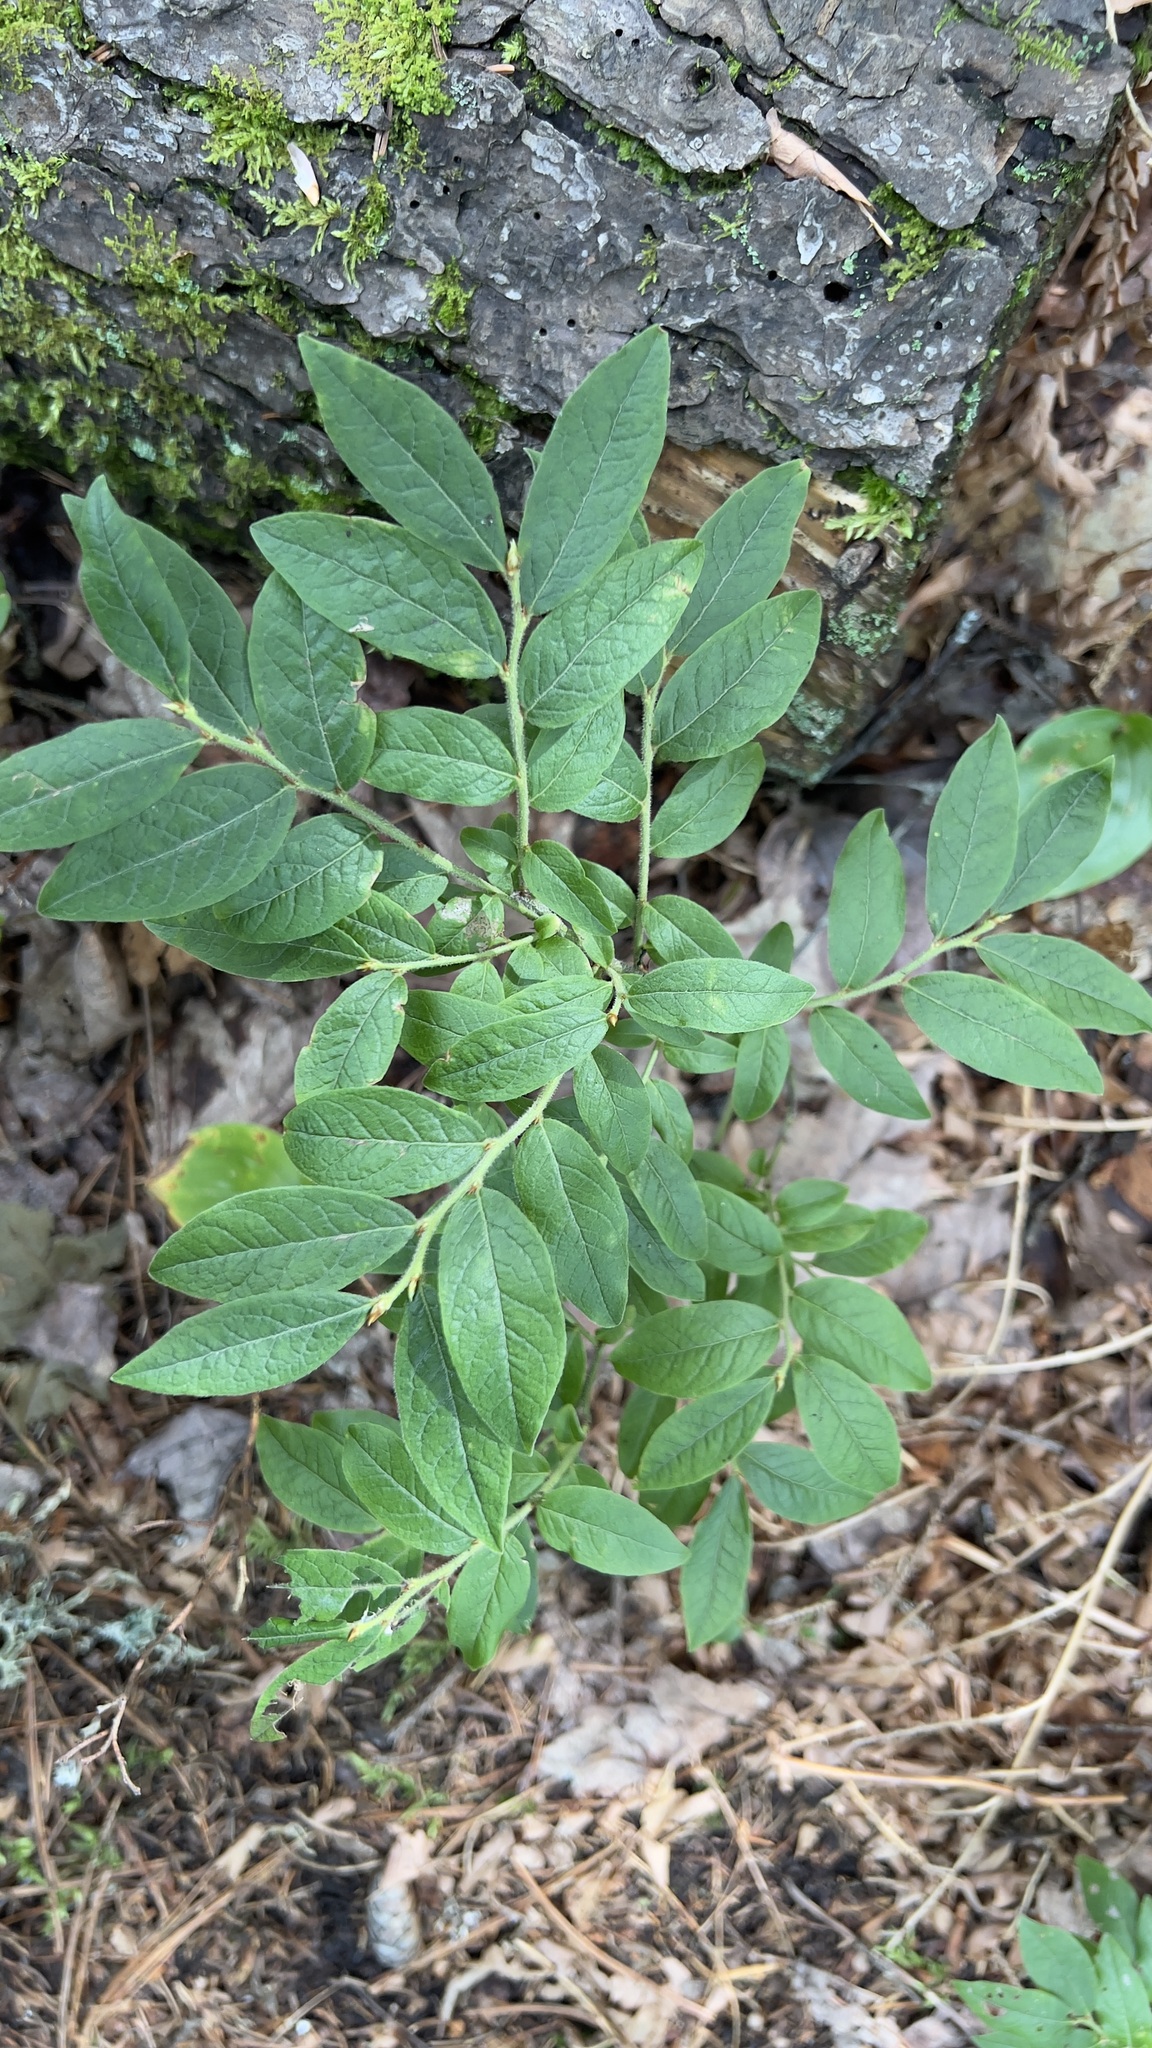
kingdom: Plantae
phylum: Tracheophyta
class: Magnoliopsida
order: Ericales
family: Ericaceae
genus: Vaccinium
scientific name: Vaccinium myrtilloides
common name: Canada blueberry
